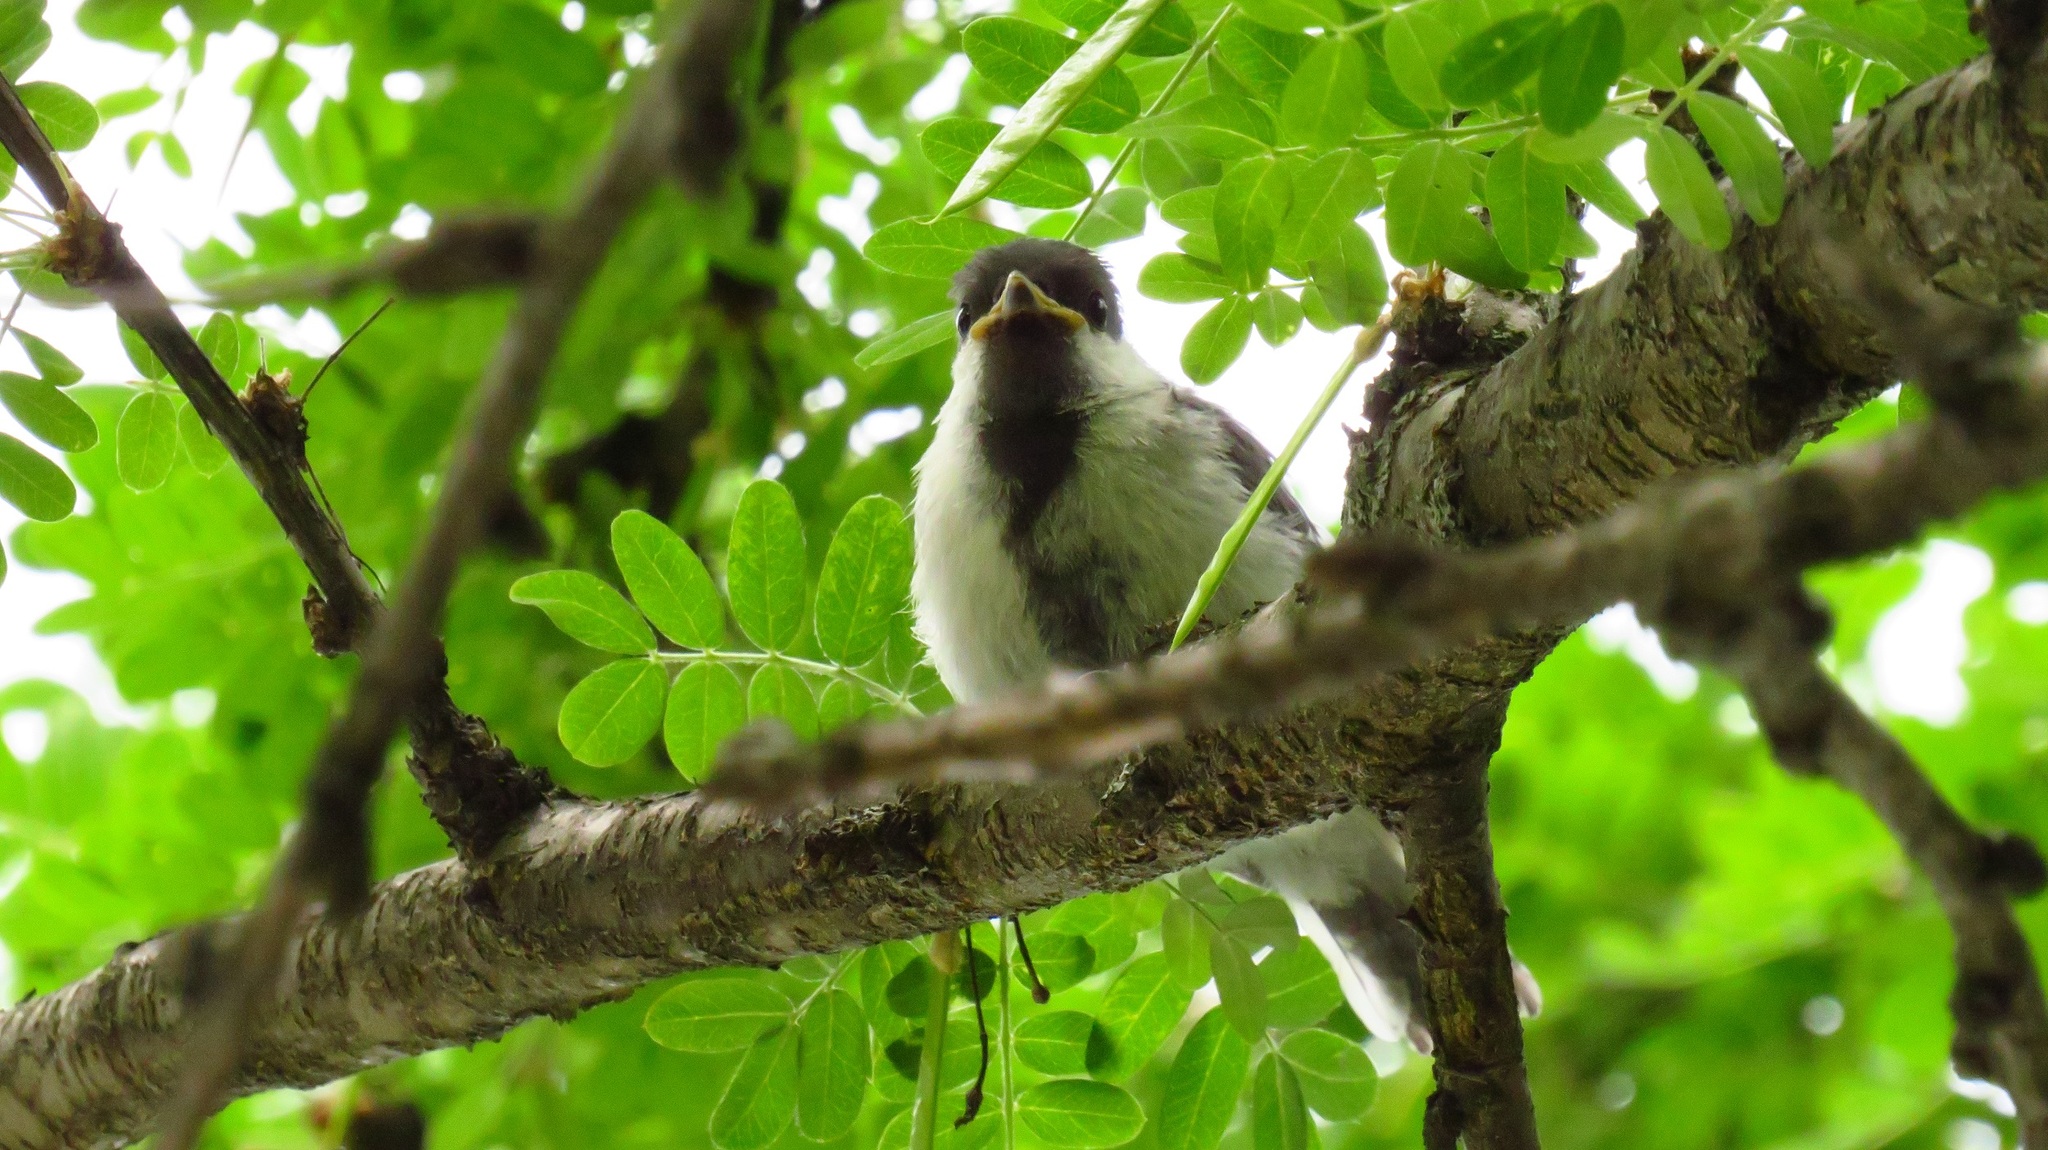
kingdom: Animalia
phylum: Chordata
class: Aves
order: Passeriformes
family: Paridae
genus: Parus
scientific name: Parus major
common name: Great tit
